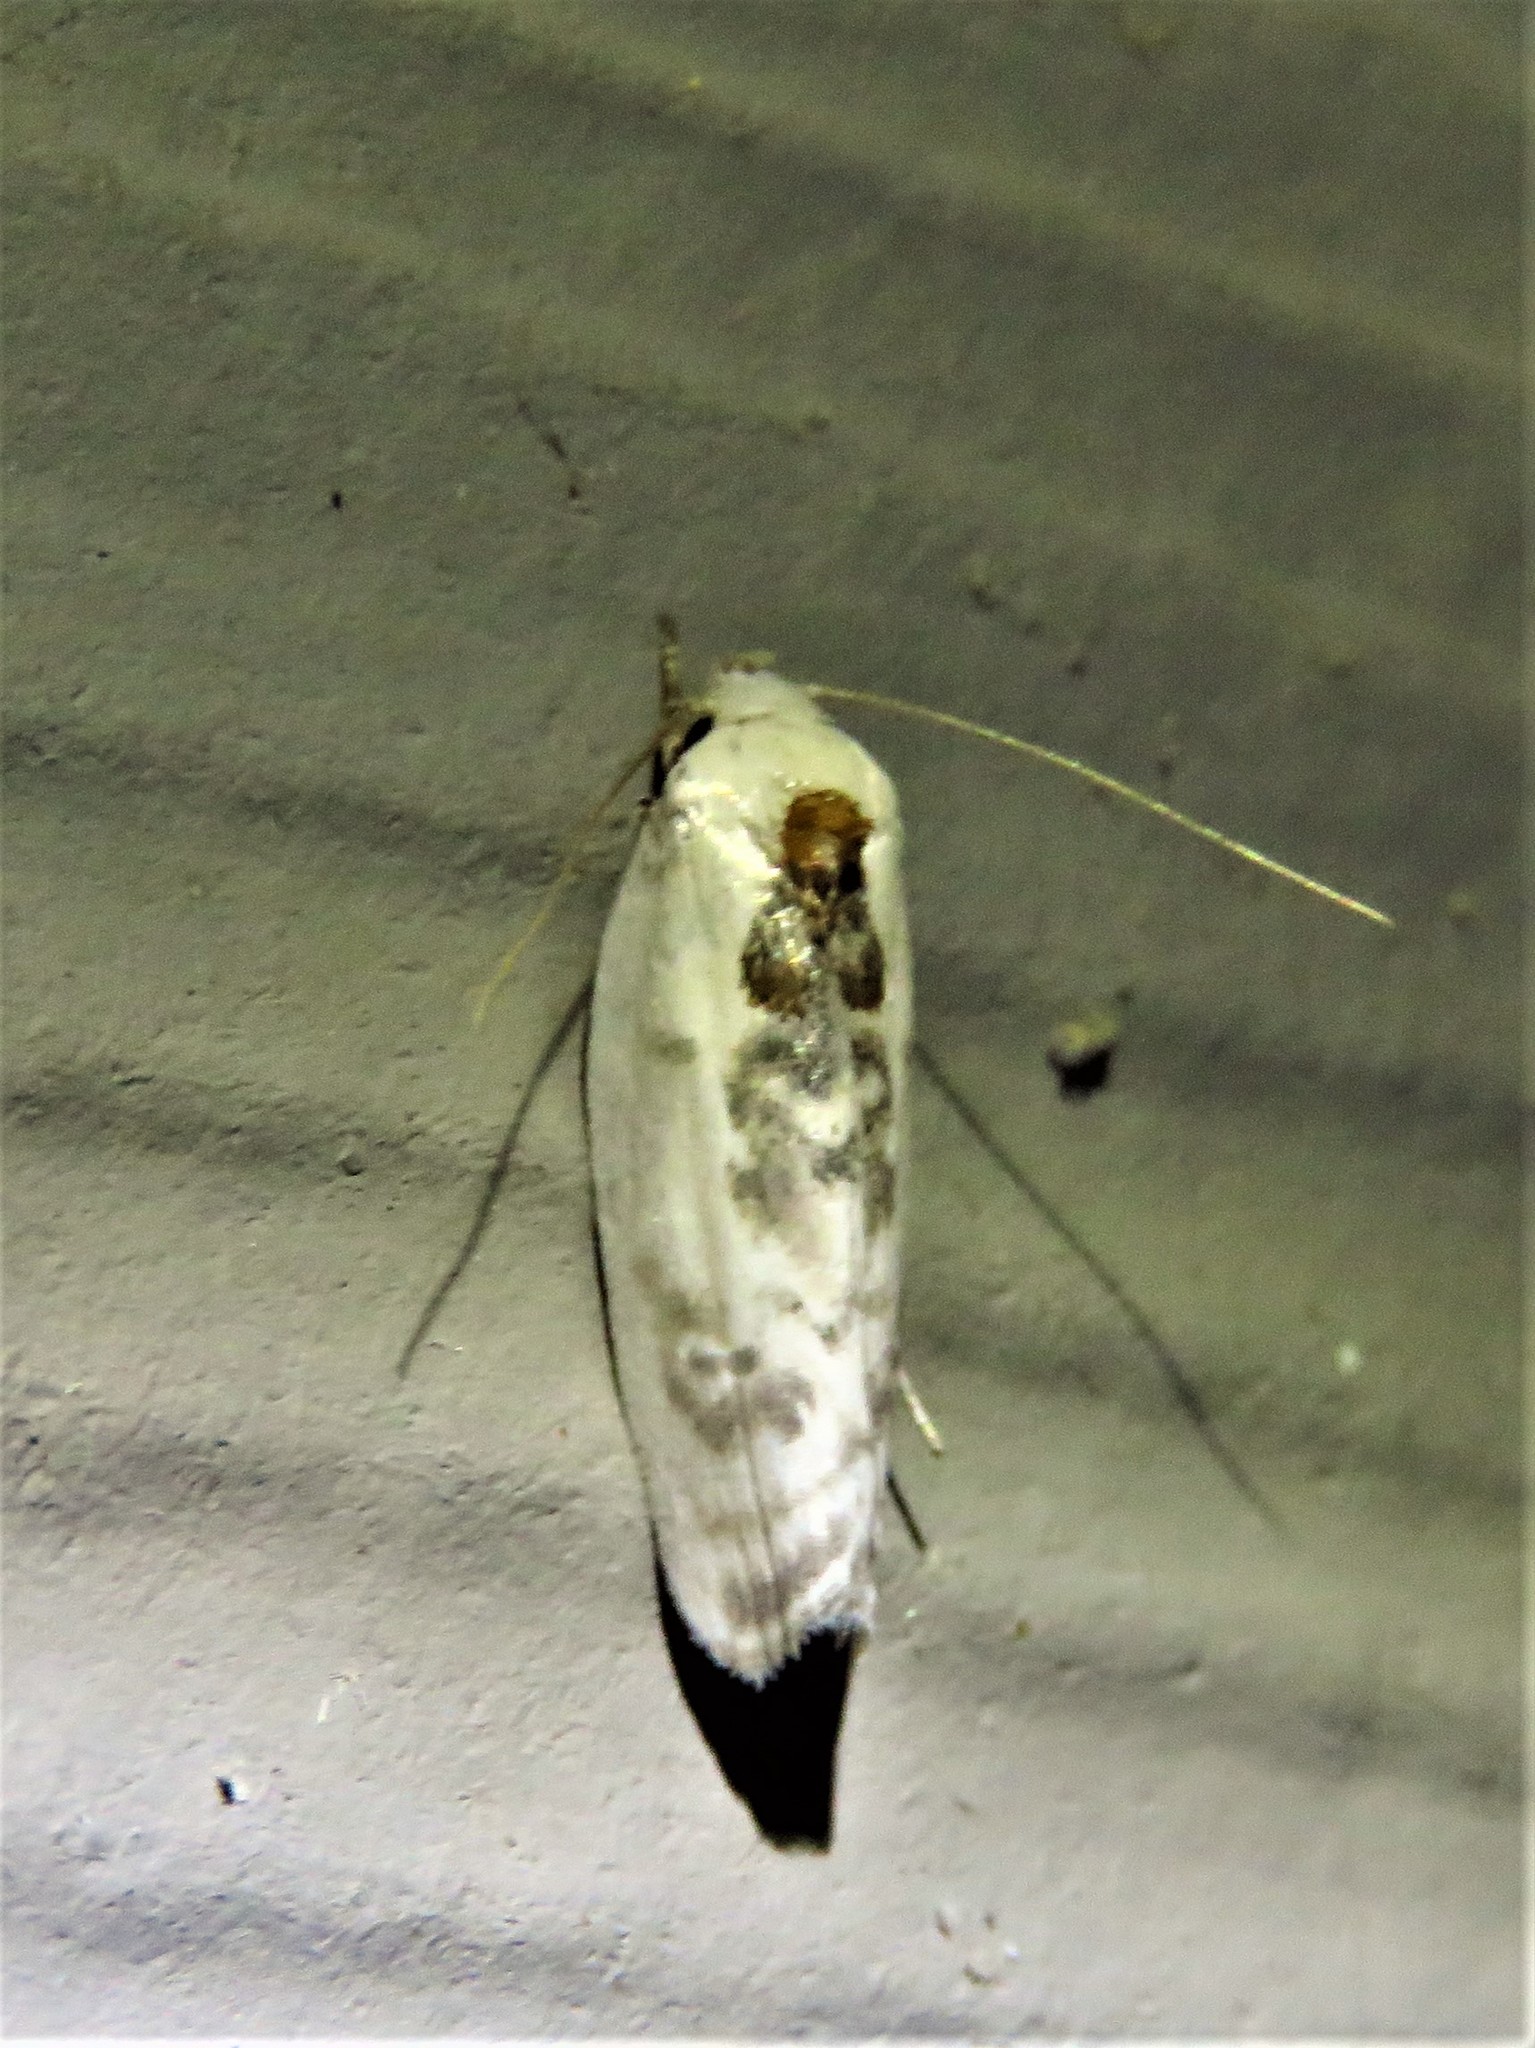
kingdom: Animalia
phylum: Arthropoda
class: Insecta
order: Lepidoptera
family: Depressariidae
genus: Antaeotricha
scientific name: Antaeotricha leucillana
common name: Pale gray bird-dropping moth
